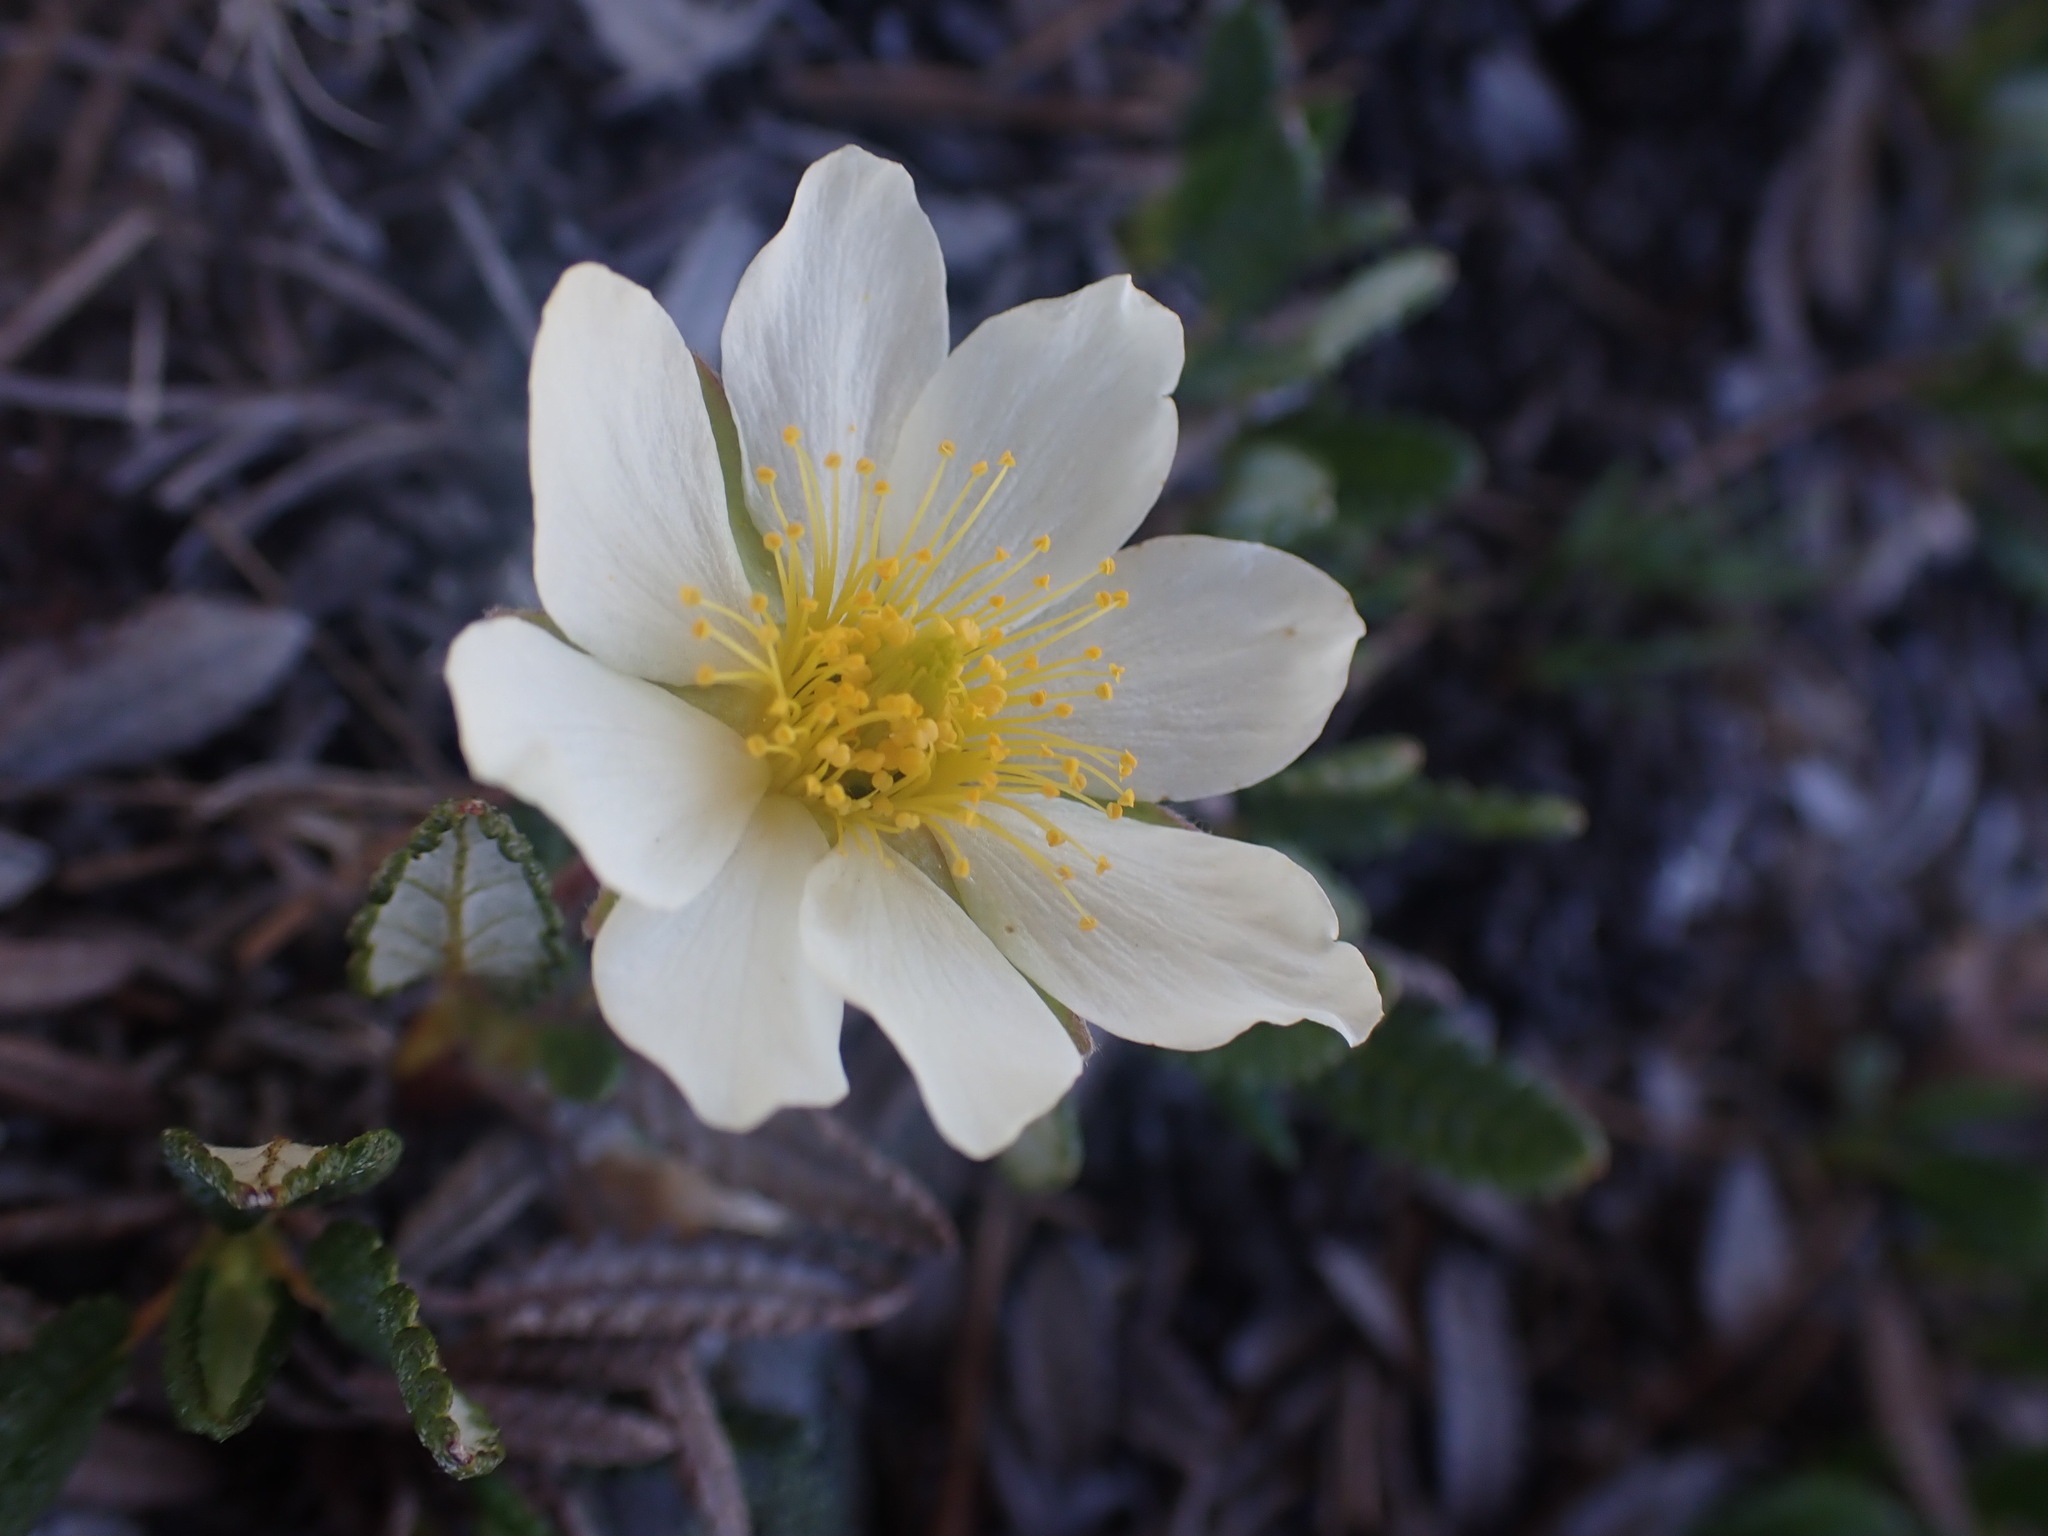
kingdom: Plantae
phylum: Tracheophyta
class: Magnoliopsida
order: Rosales
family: Rosaceae
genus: Dryas
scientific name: Dryas octopetala
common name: Eight-petal mountain-avens
